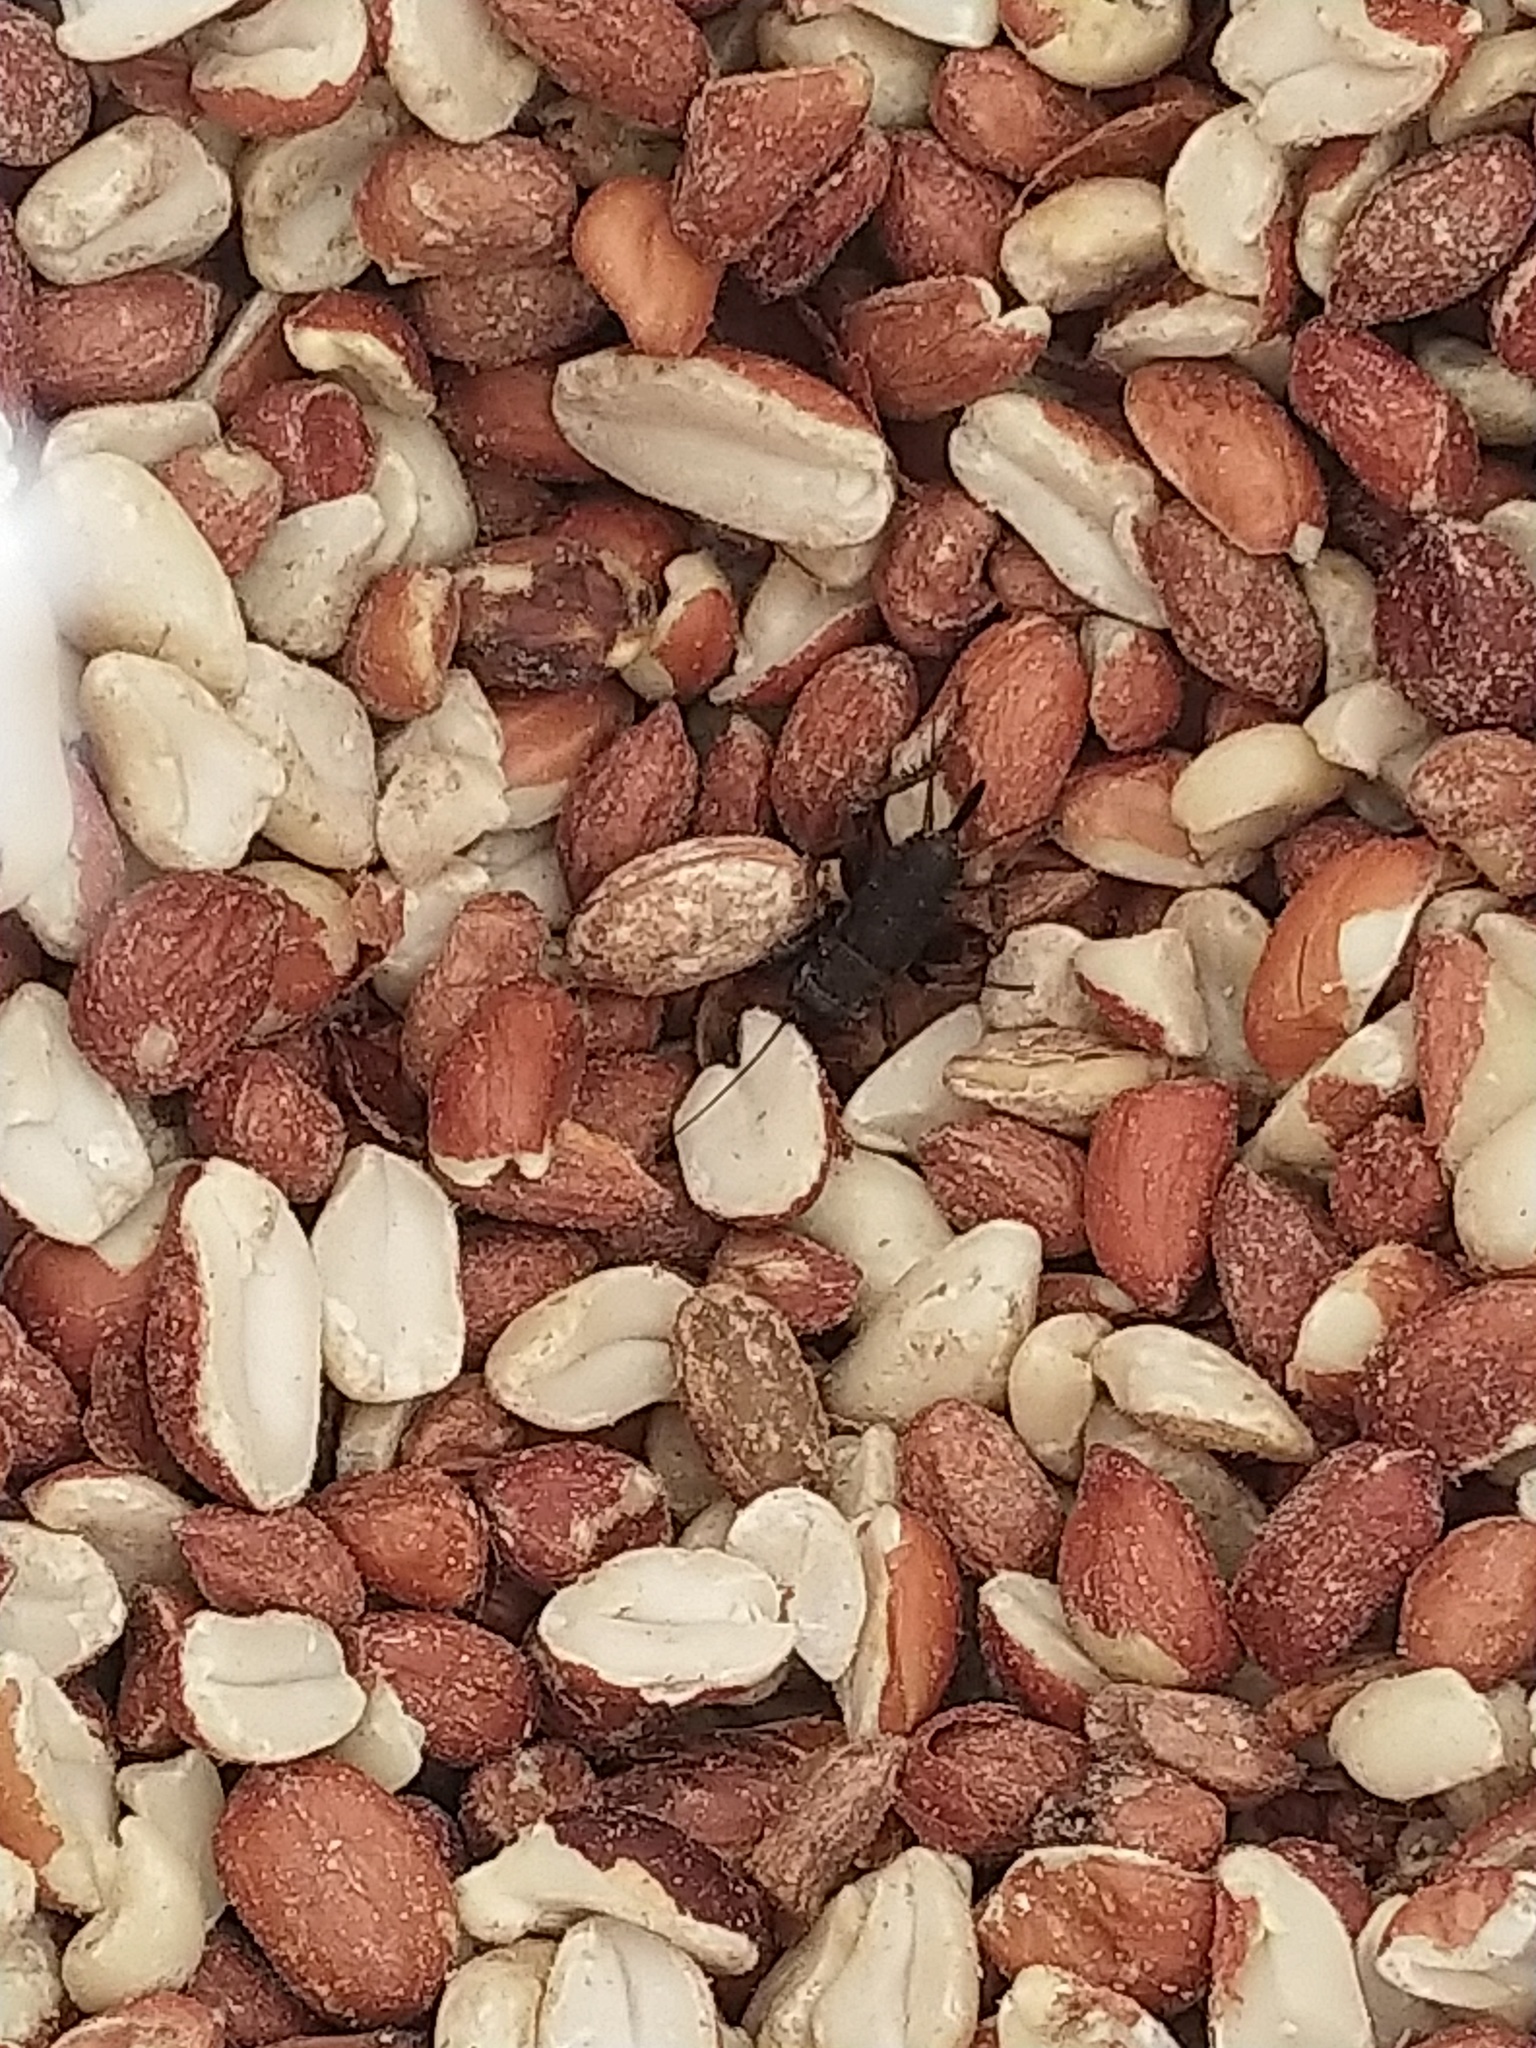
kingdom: Animalia
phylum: Arthropoda
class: Insecta
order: Orthoptera
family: Gryllidae
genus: Gryllus
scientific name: Gryllus pennsylvanicus
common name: Fall field cricket
